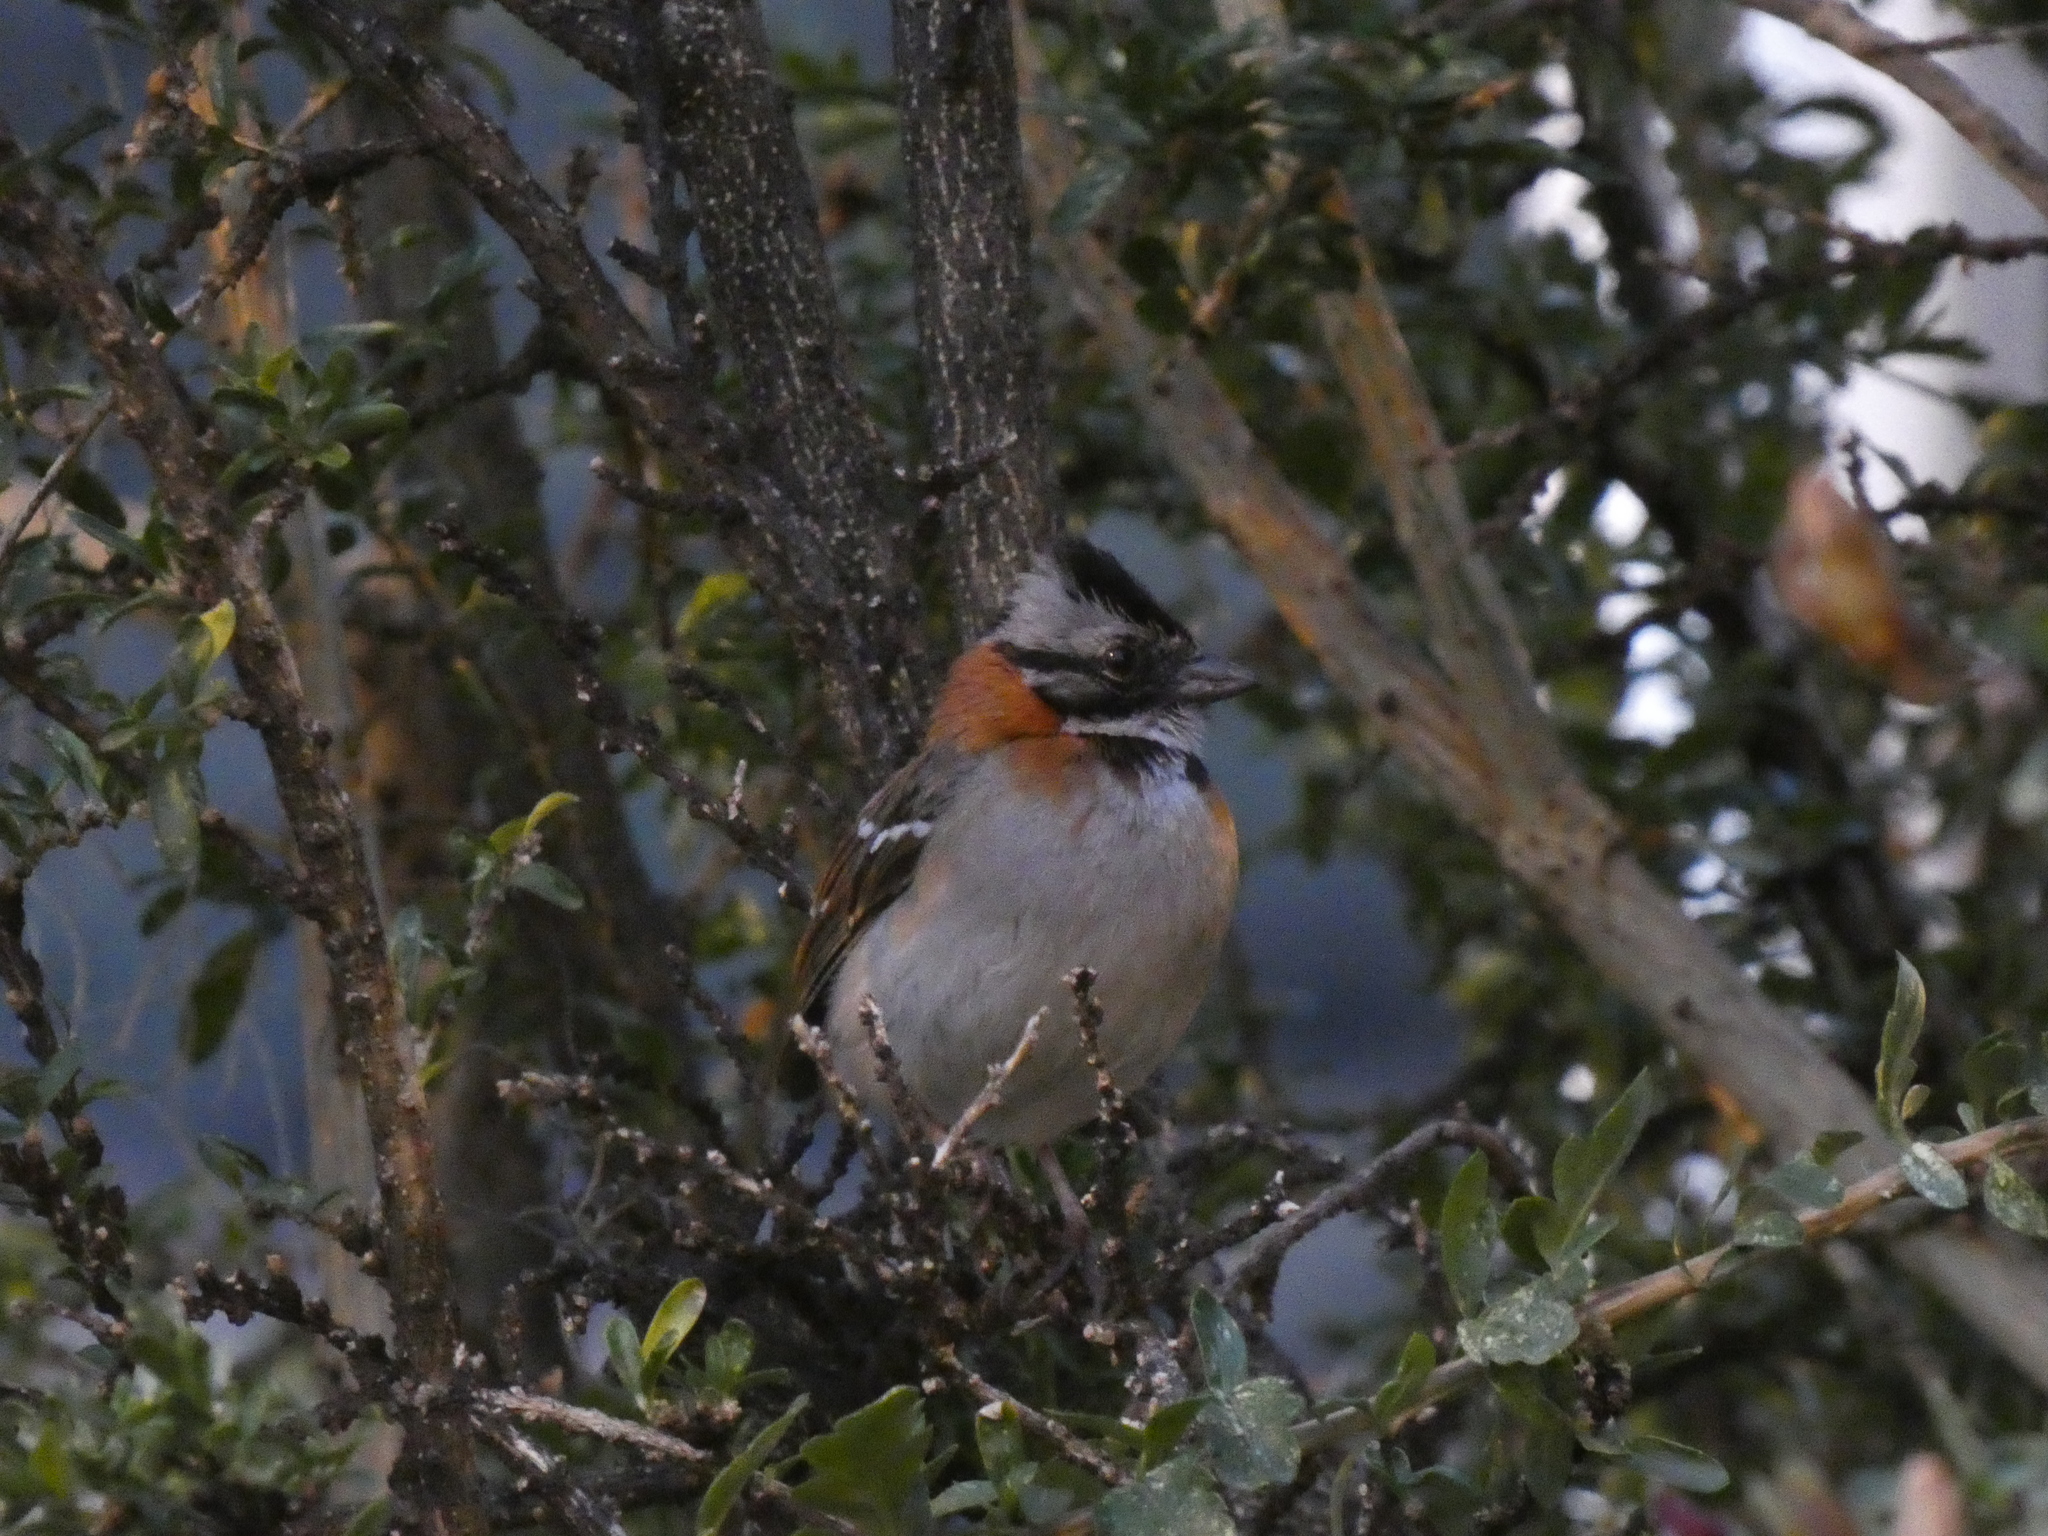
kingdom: Animalia
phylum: Chordata
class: Aves
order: Passeriformes
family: Passerellidae
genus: Zonotrichia
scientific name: Zonotrichia capensis
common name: Rufous-collared sparrow
